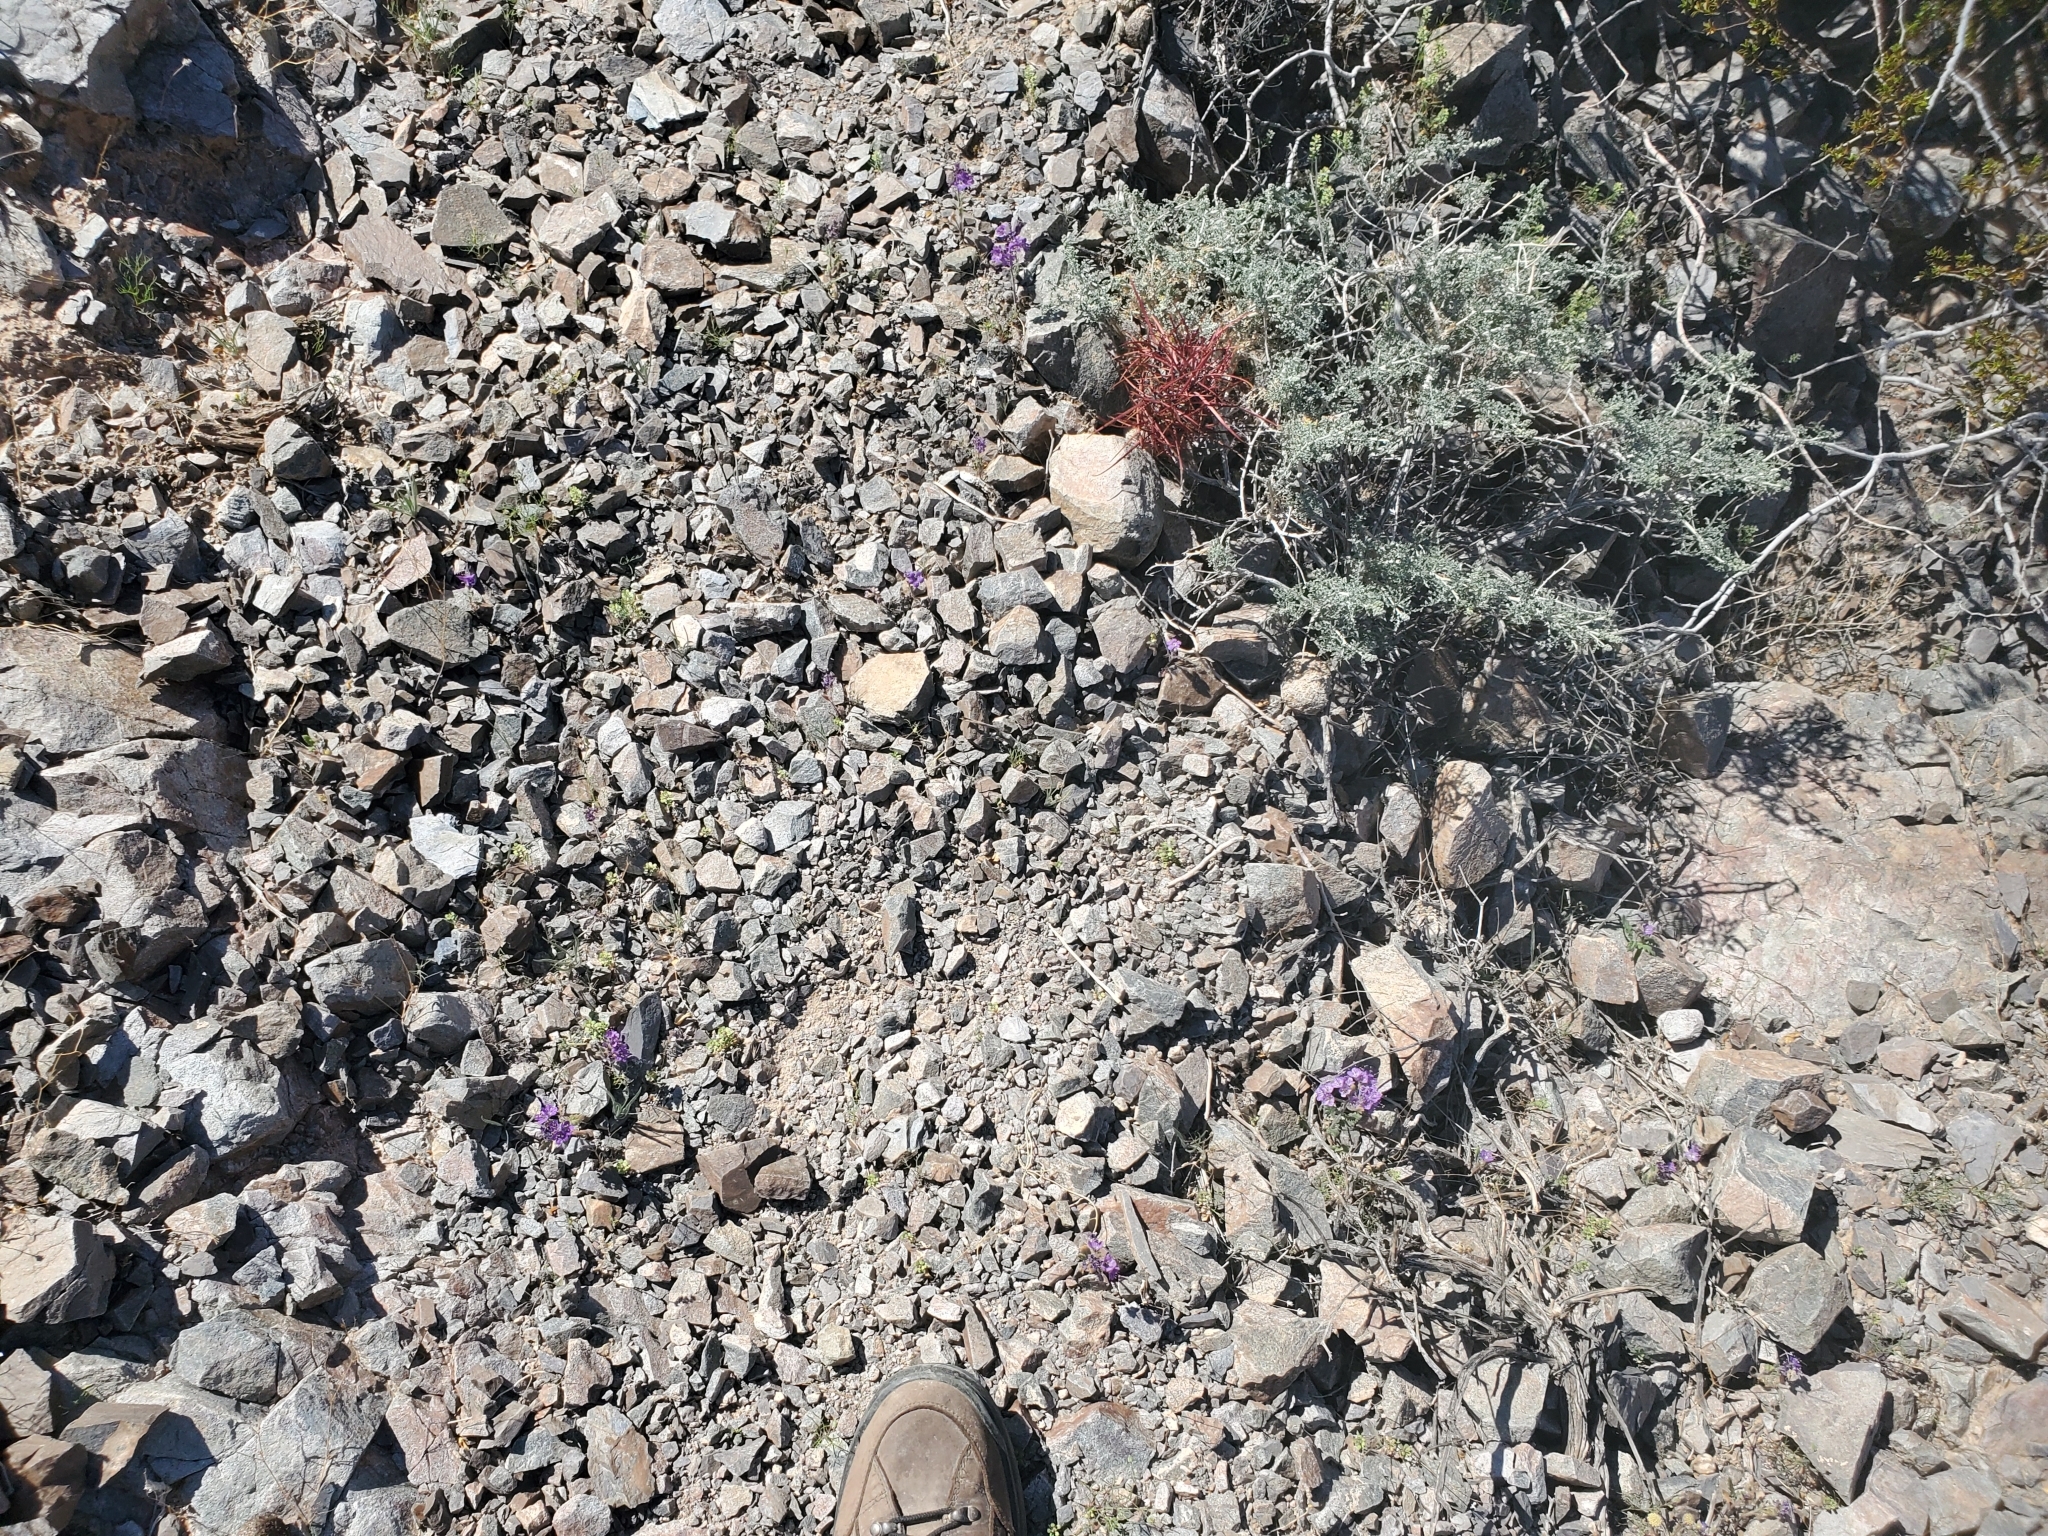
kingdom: Plantae
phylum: Tracheophyta
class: Magnoliopsida
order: Caryophyllales
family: Cactaceae
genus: Ferocactus
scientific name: Ferocactus cylindraceus
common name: California barrel cactus
